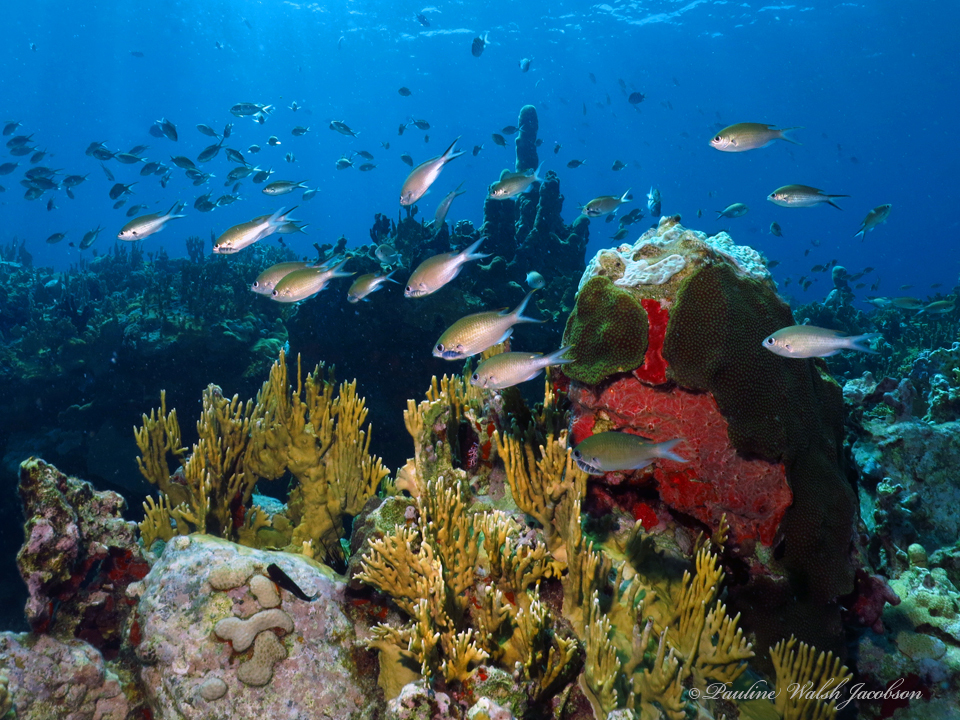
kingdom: Animalia
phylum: Chordata
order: Perciformes
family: Pomacentridae
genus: Chromis
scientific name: Chromis multilineata
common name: Brown chromis
